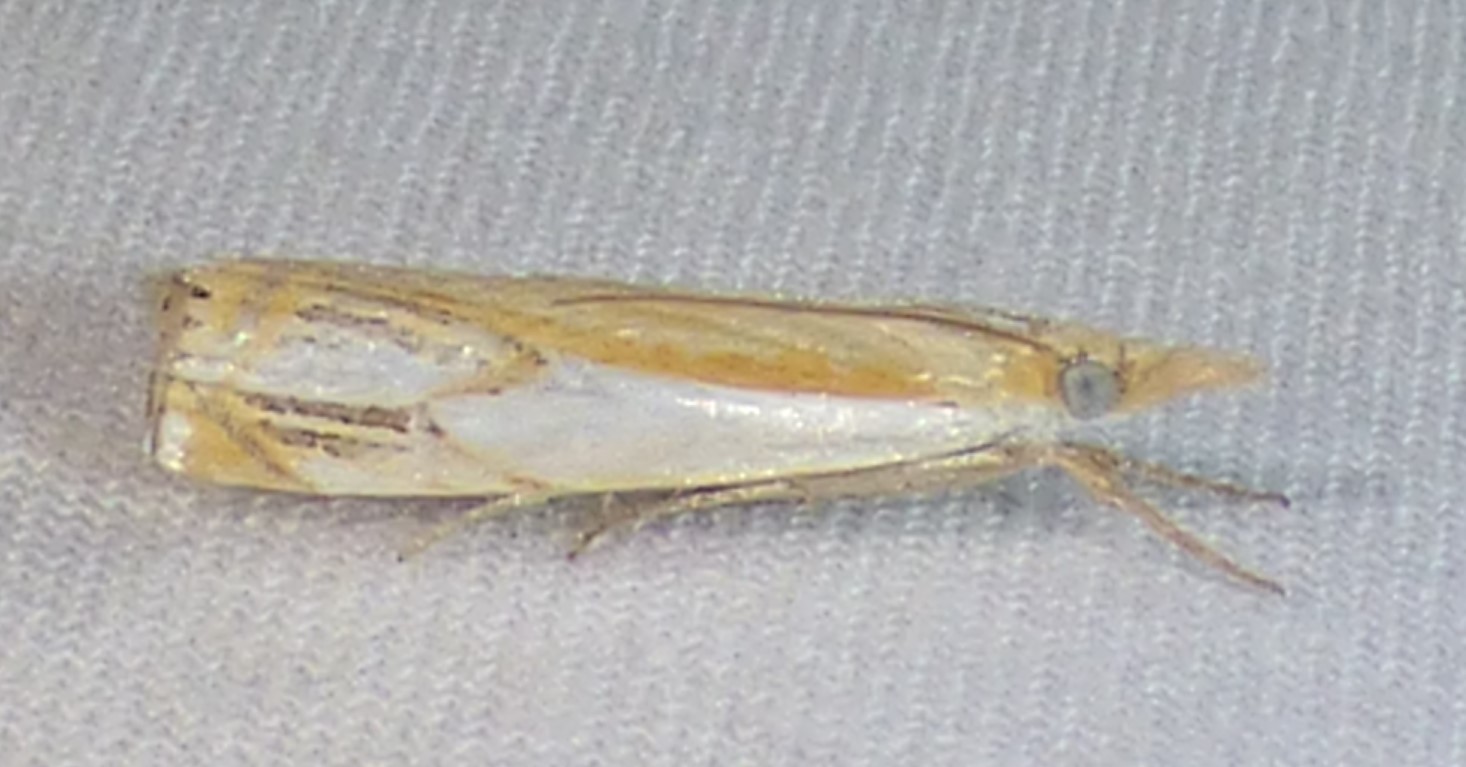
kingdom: Animalia
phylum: Arthropoda
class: Insecta
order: Lepidoptera
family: Crambidae
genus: Crambus
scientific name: Crambus agitatellus
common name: Double-banded grass-veneer
